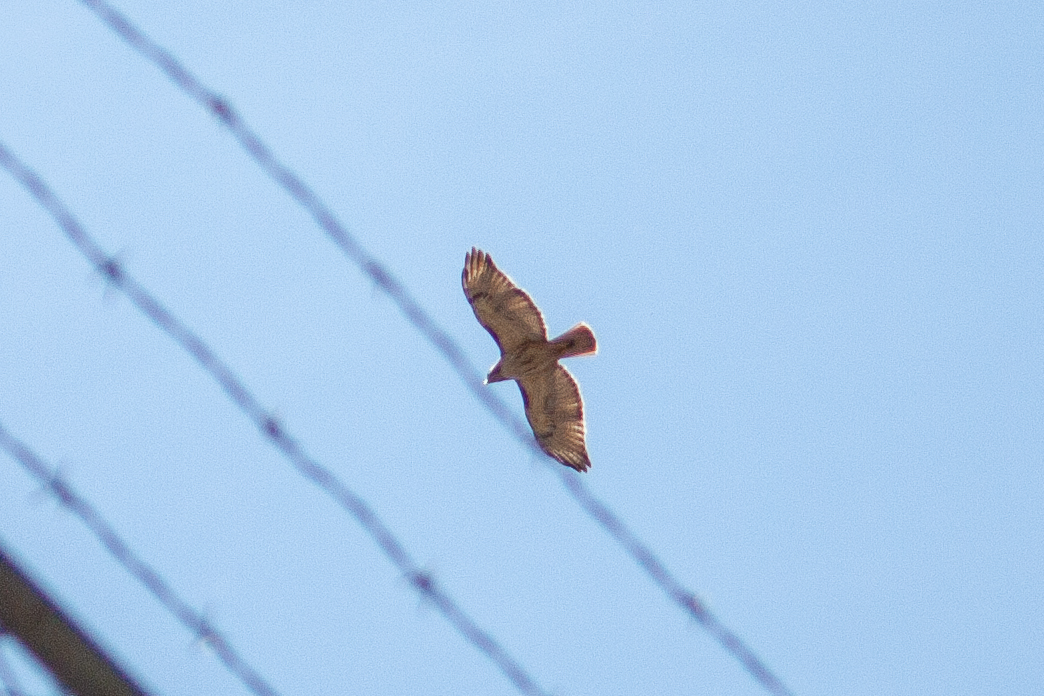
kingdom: Animalia
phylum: Chordata
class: Aves
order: Accipitriformes
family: Accipitridae
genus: Buteo
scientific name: Buteo jamaicensis
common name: Red-tailed hawk
